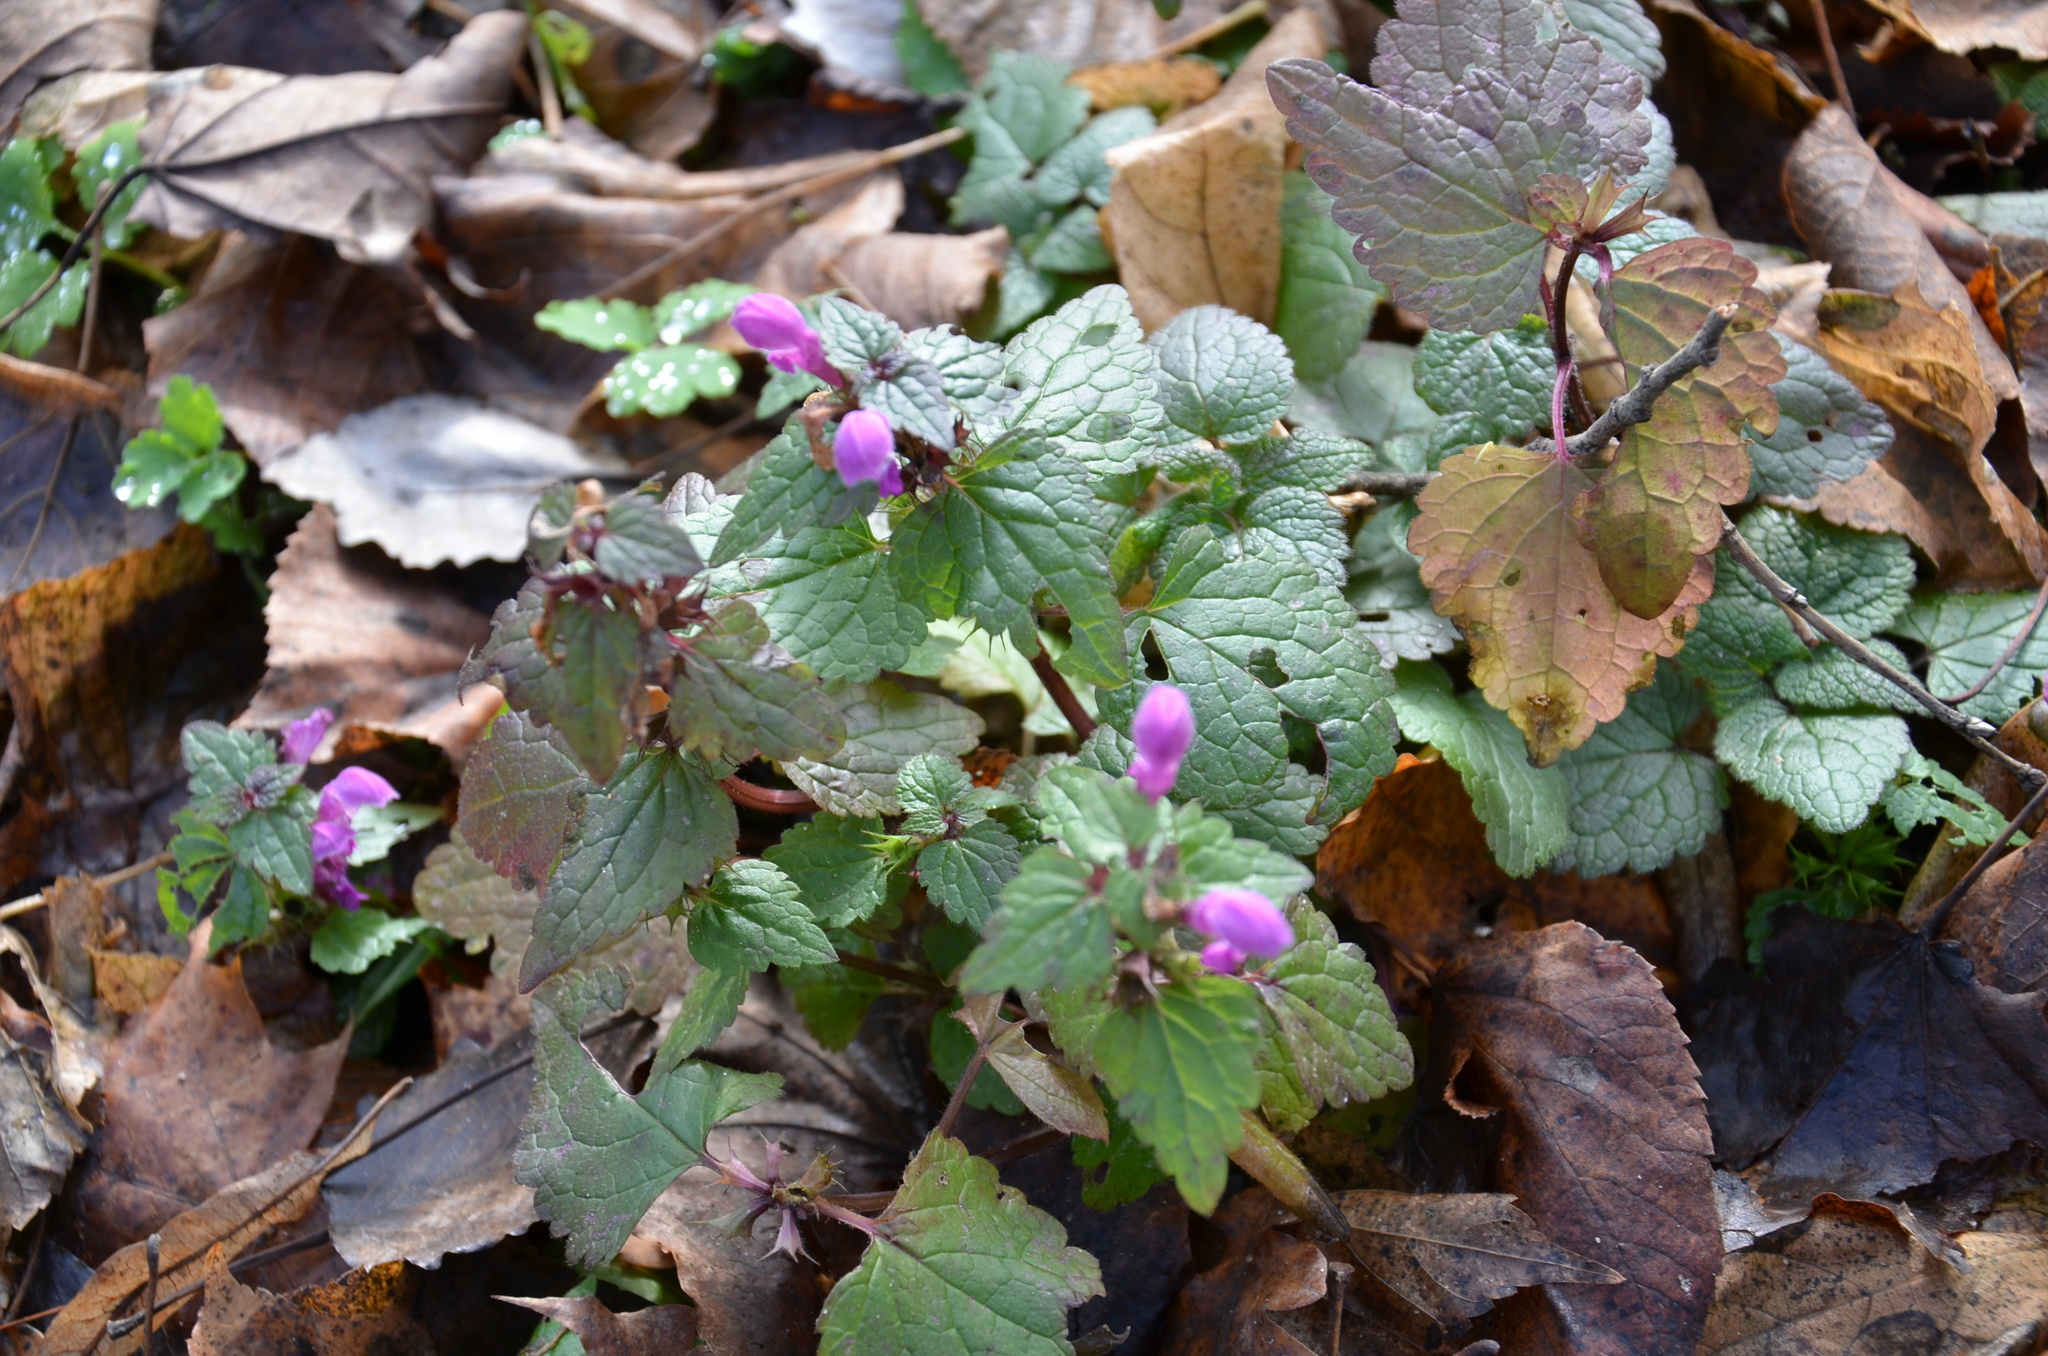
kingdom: Plantae
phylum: Tracheophyta
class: Magnoliopsida
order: Lamiales
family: Lamiaceae
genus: Lamium
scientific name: Lamium maculatum
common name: Spotted dead-nettle
